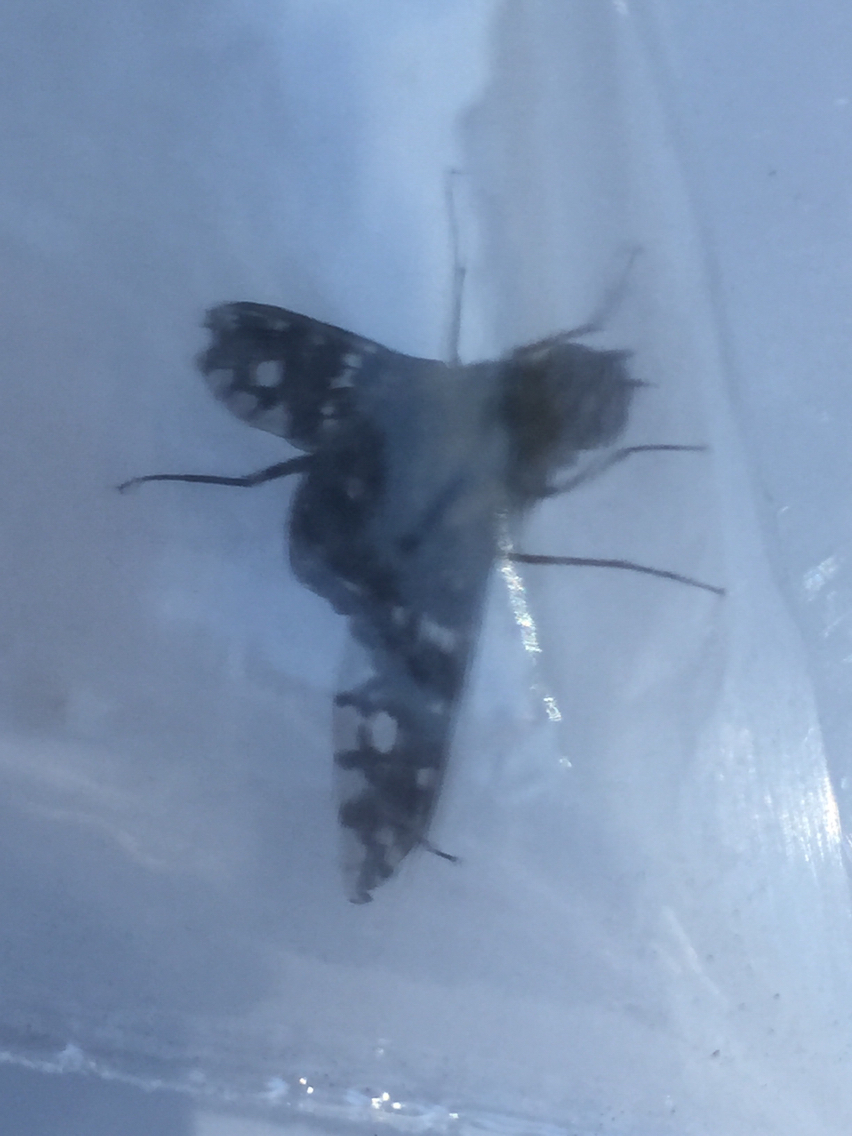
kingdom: Animalia
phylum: Arthropoda
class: Insecta
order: Diptera
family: Bombyliidae
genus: Xenox
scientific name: Xenox tigrinus
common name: Tiger bee fly
